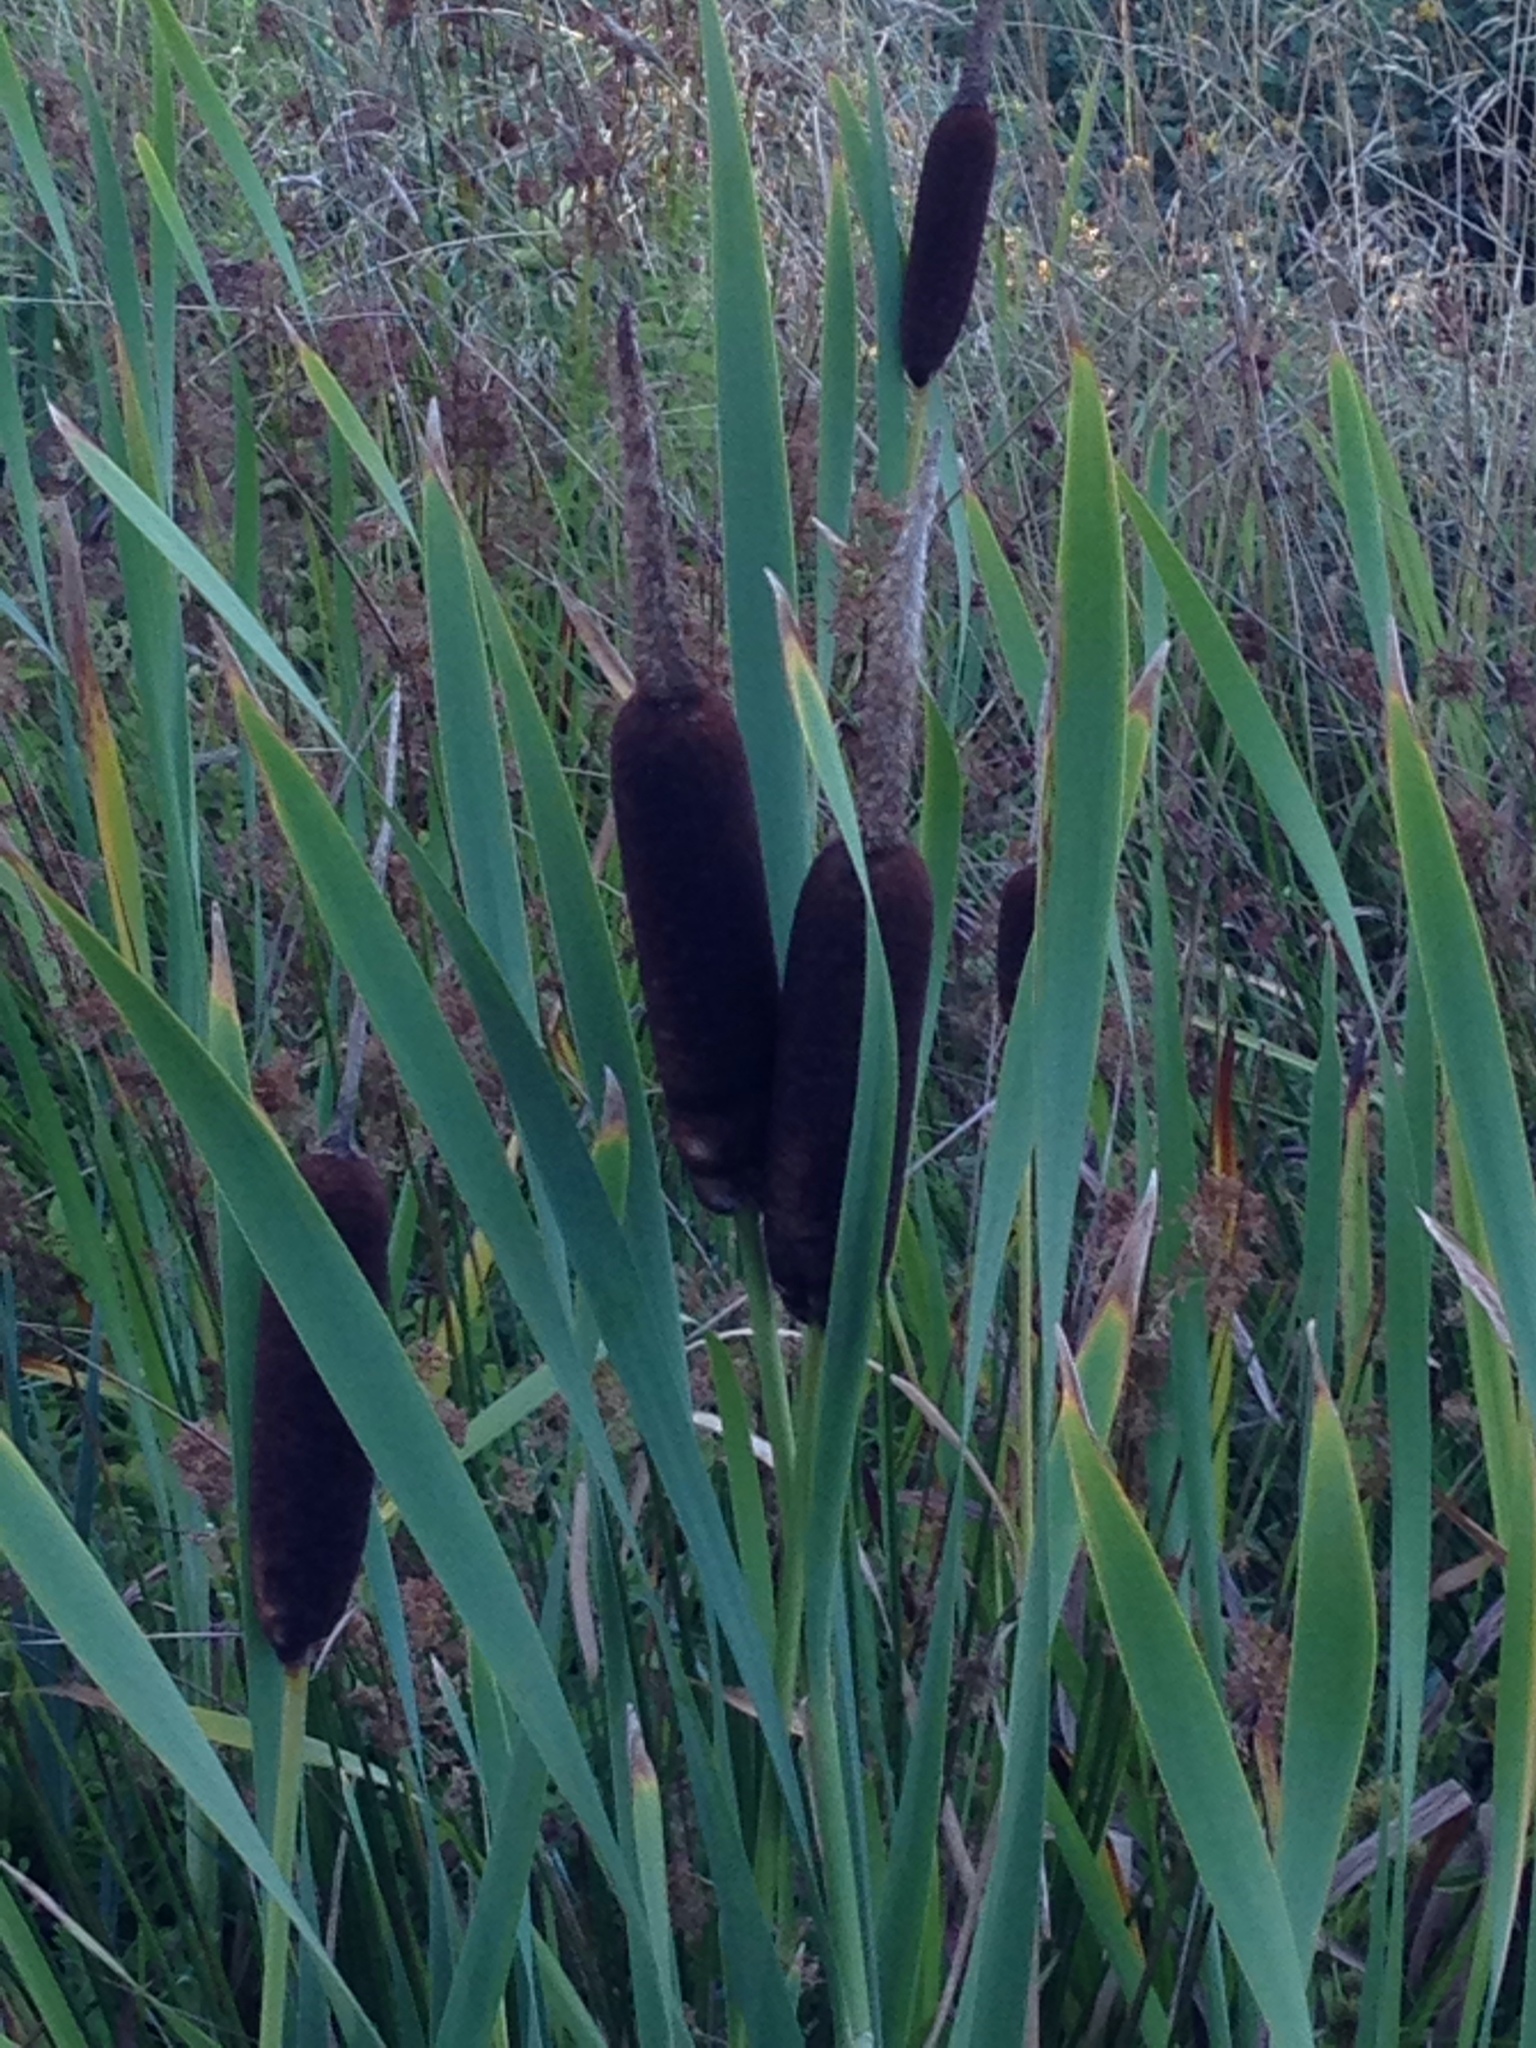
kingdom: Plantae
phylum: Tracheophyta
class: Liliopsida
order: Poales
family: Typhaceae
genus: Typha
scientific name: Typha latifolia
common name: Broadleaf cattail
